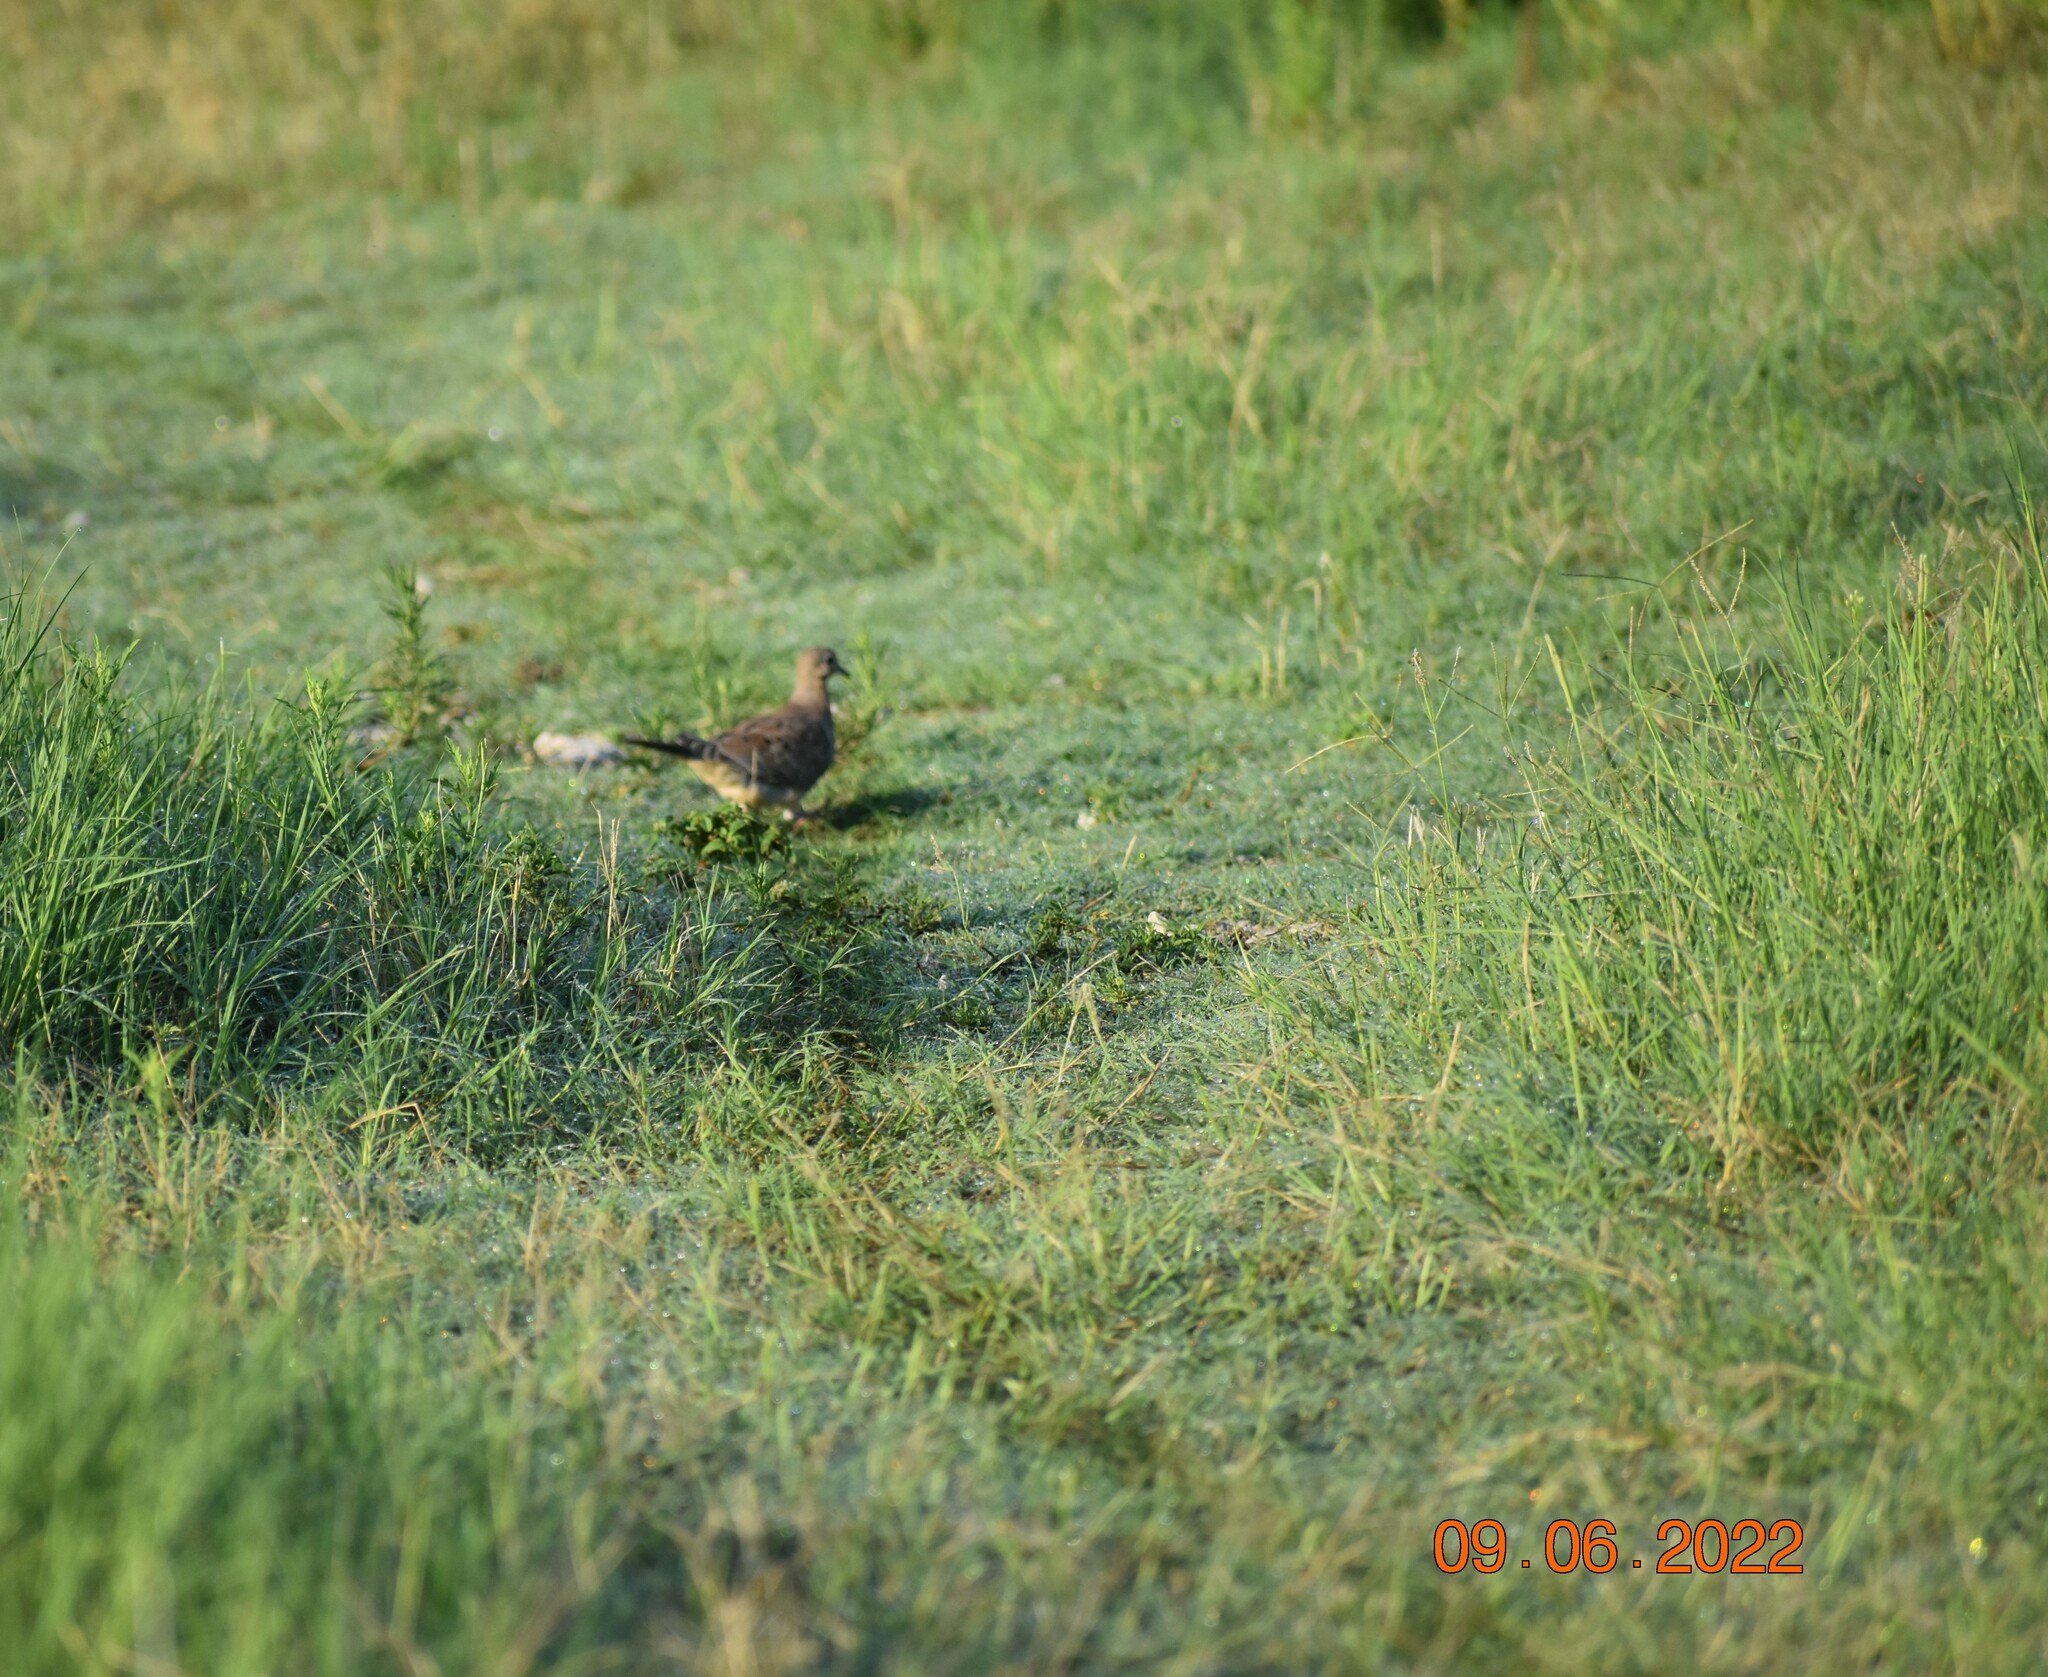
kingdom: Animalia
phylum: Chordata
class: Aves
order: Columbiformes
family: Columbidae
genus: Zenaida
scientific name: Zenaida macroura
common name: Mourning dove
